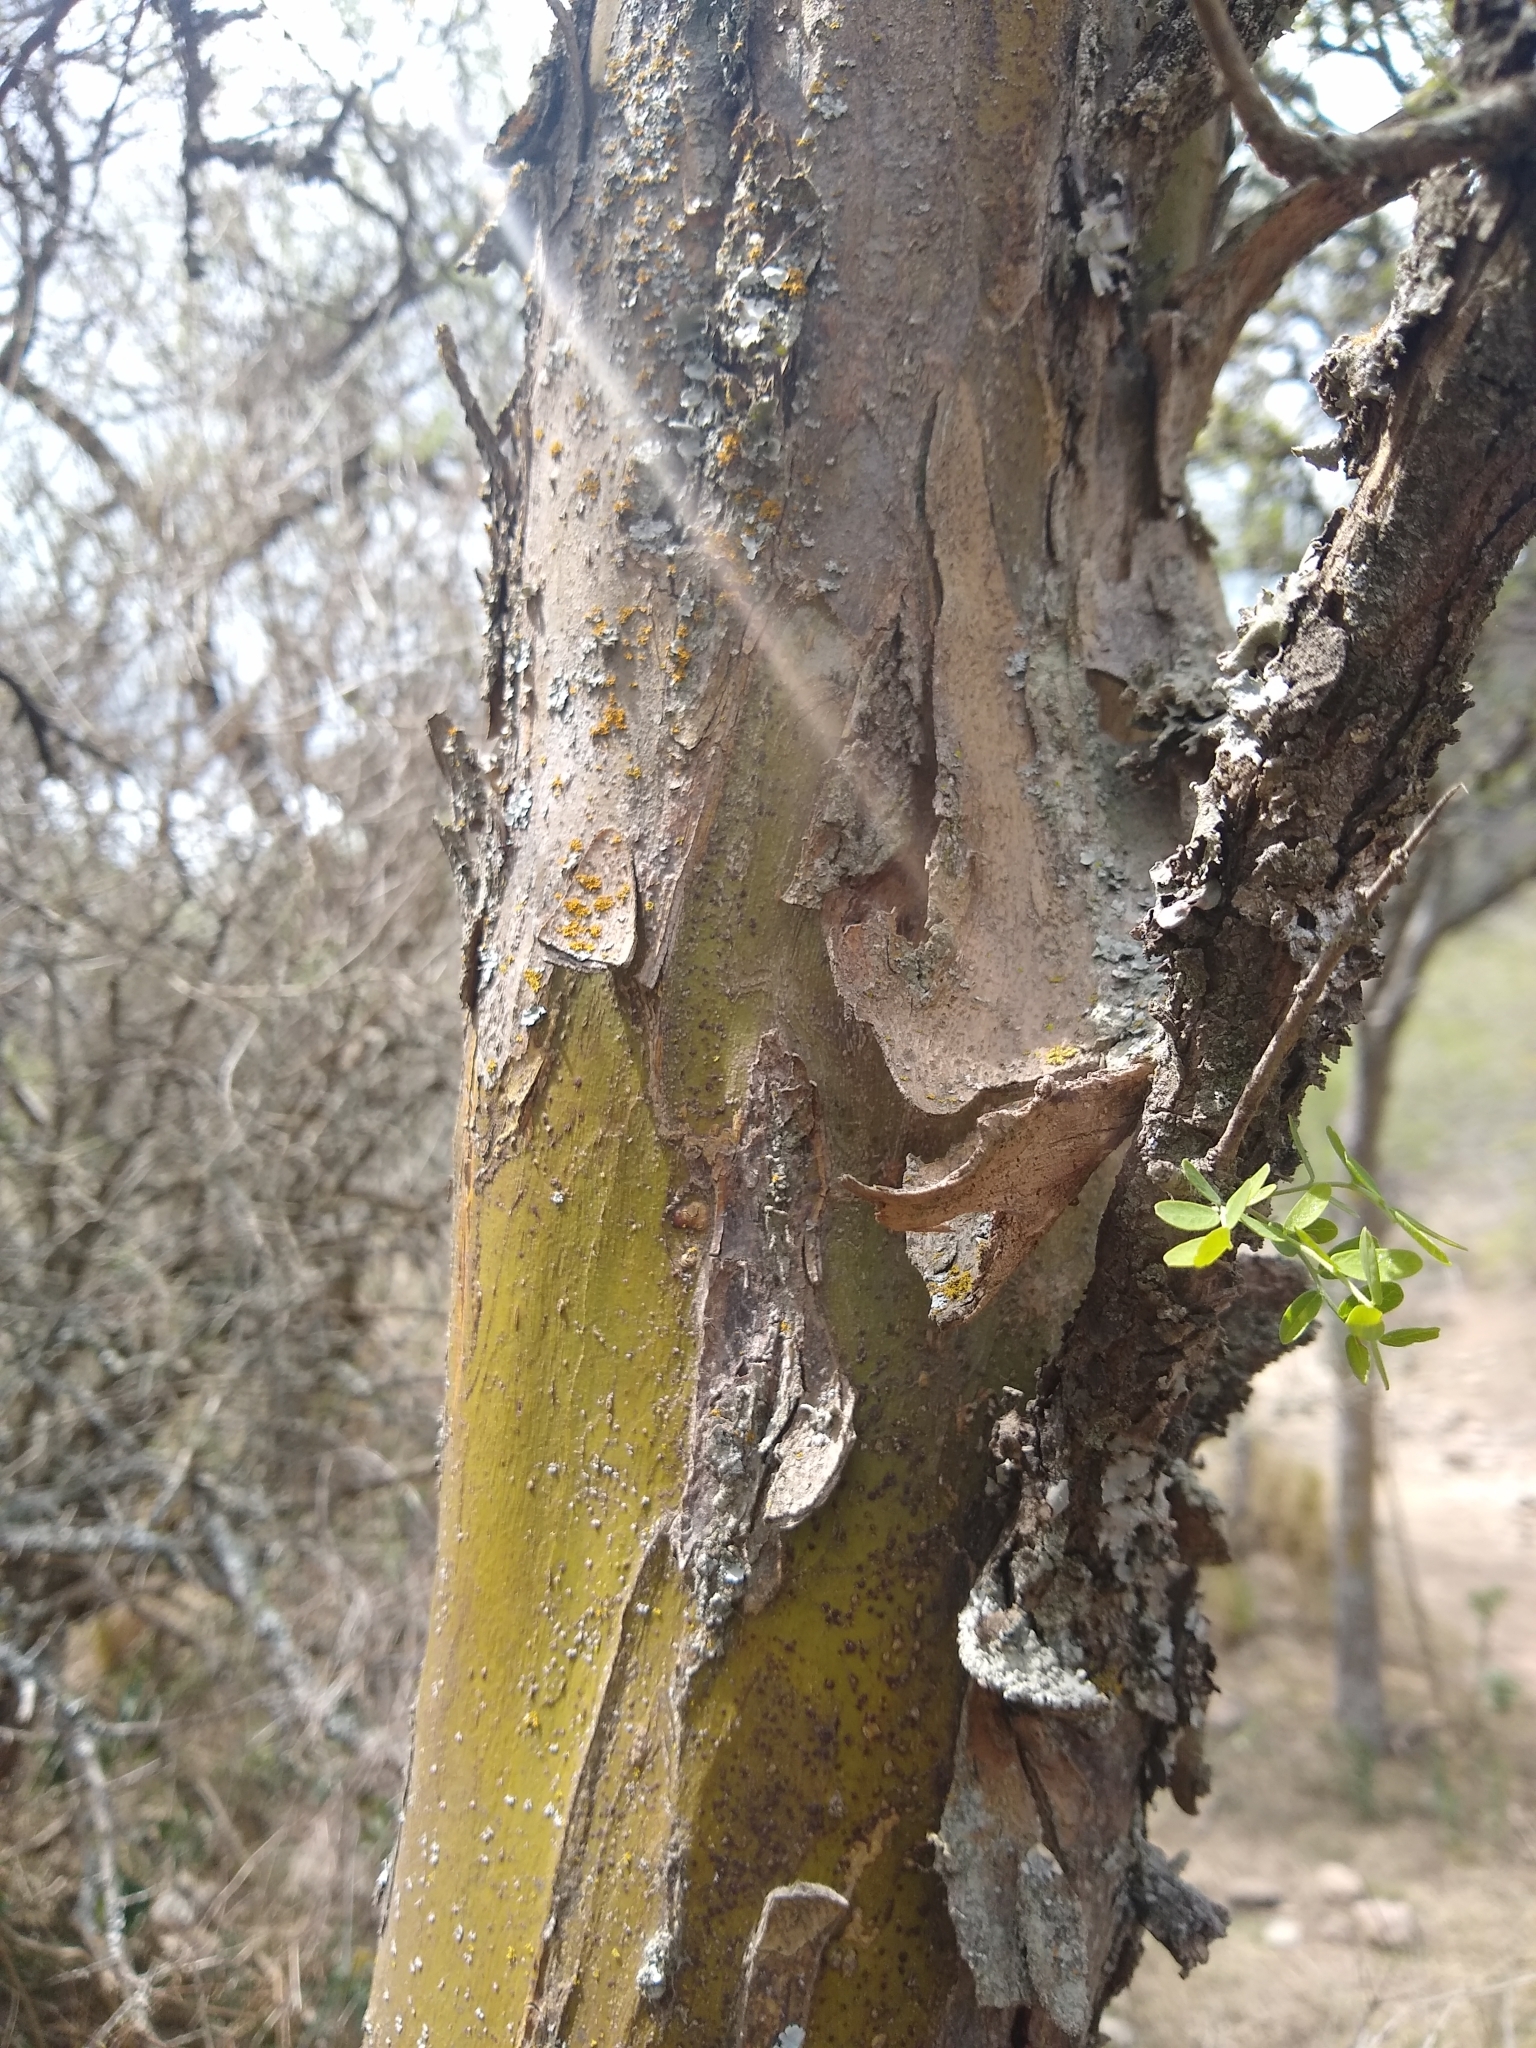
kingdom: Plantae
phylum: Tracheophyta
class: Magnoliopsida
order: Fabales
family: Fabaceae
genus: Geoffroea
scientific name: Geoffroea decorticans
